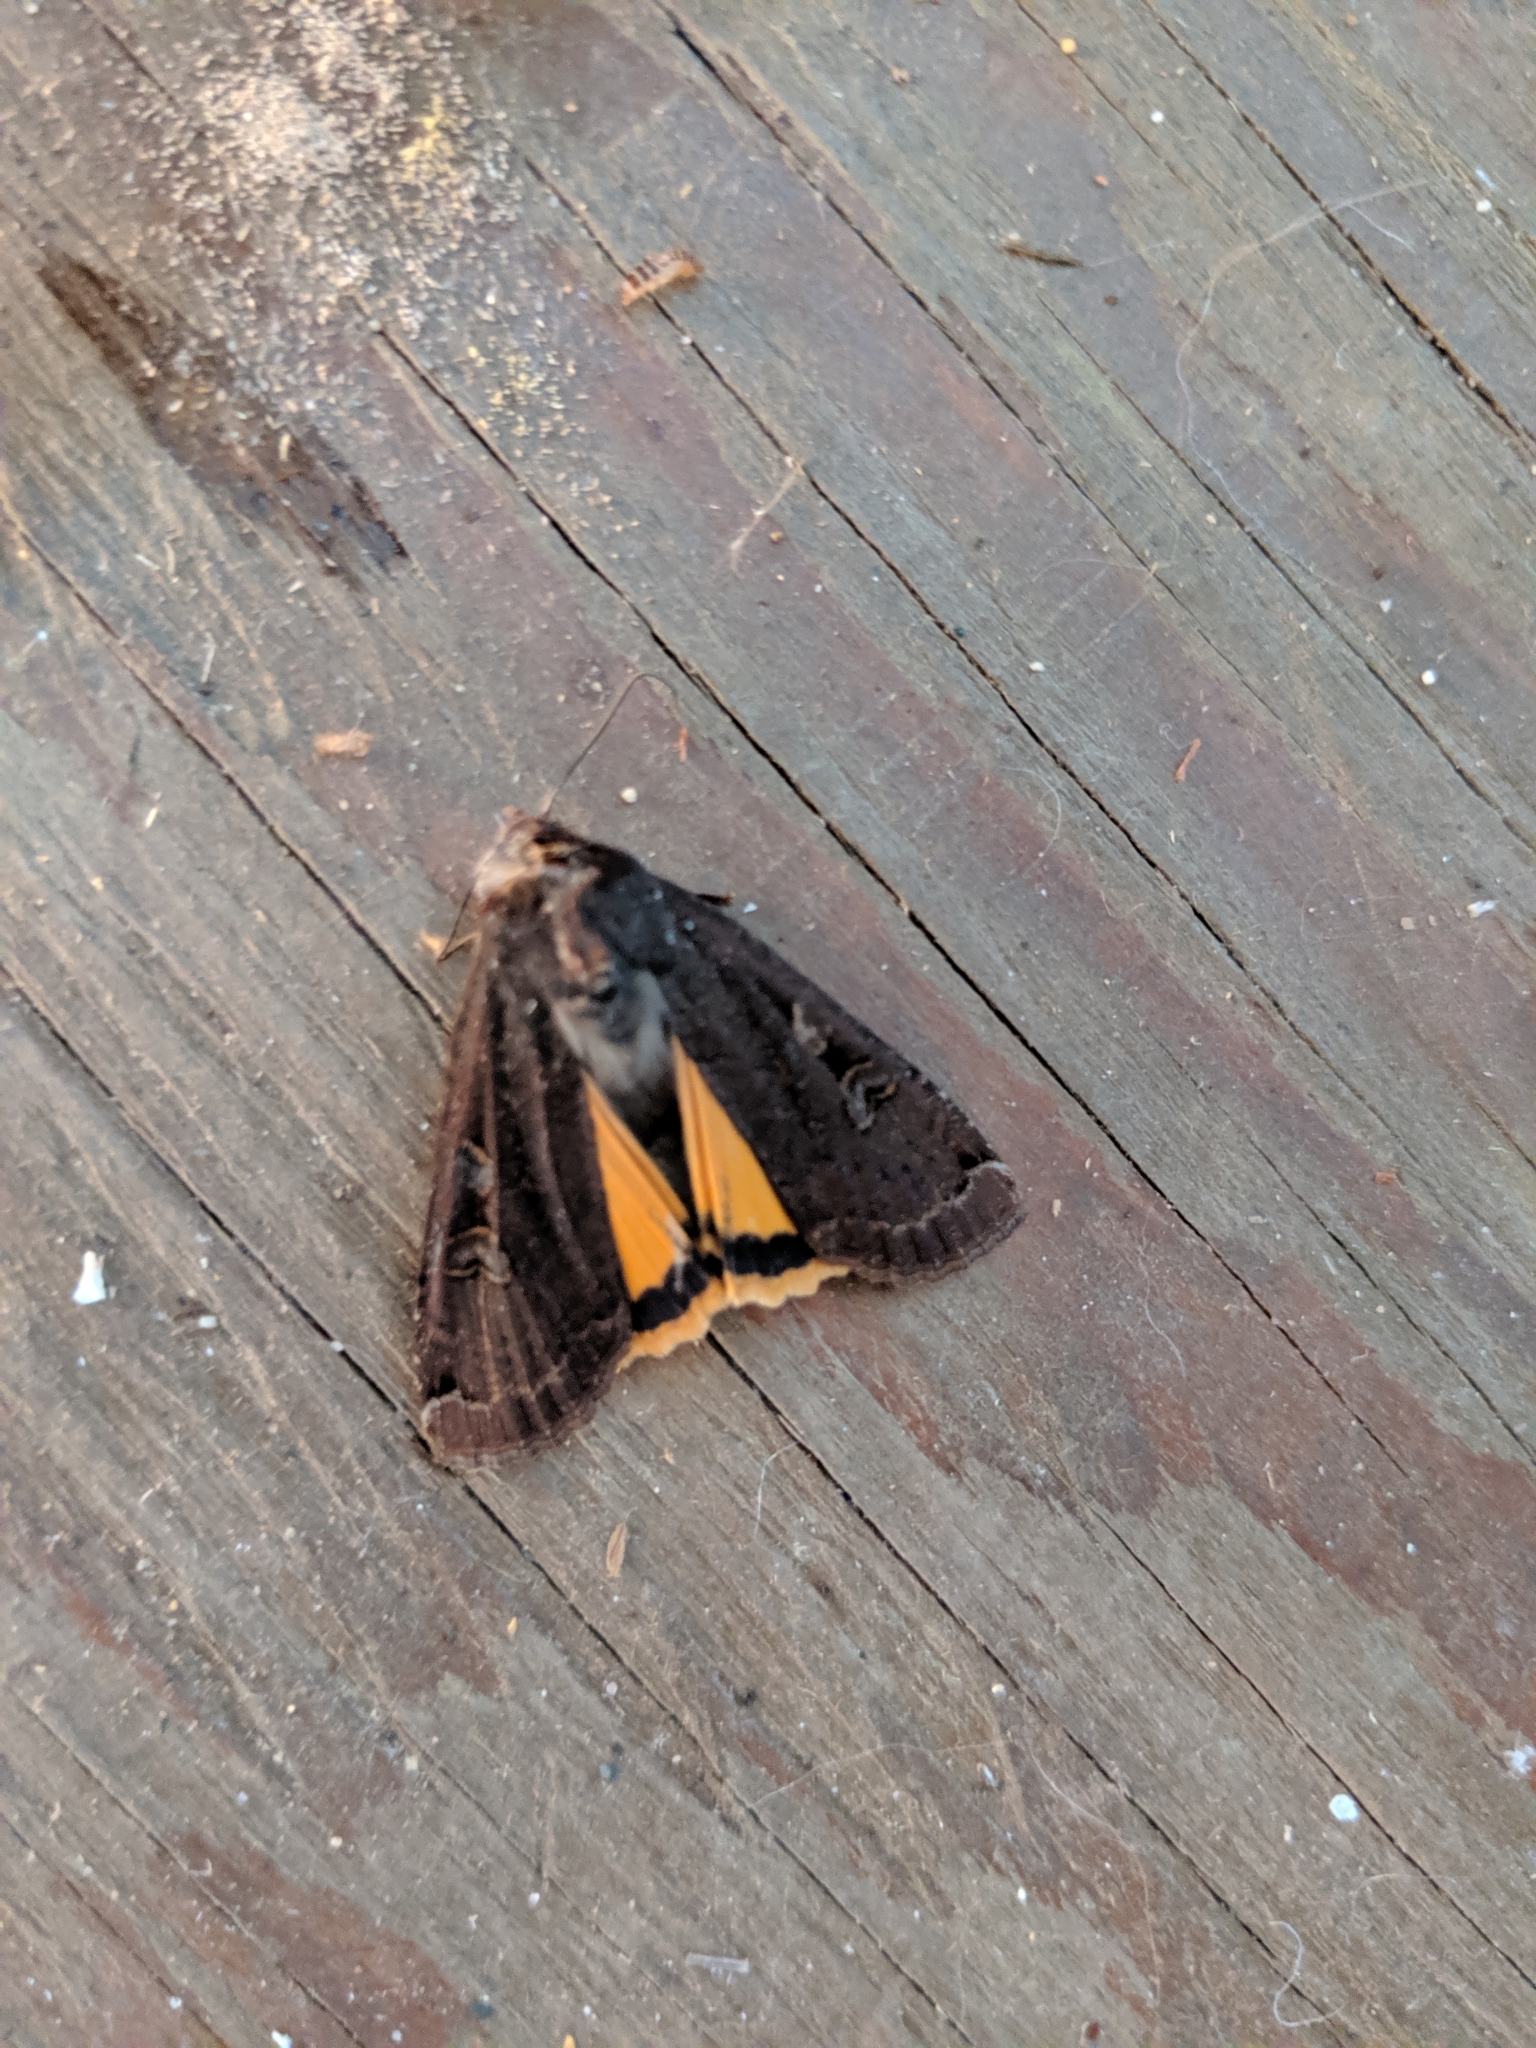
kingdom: Animalia
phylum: Arthropoda
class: Insecta
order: Lepidoptera
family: Noctuidae
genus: Noctua
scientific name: Noctua pronuba
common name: Large yellow underwing
